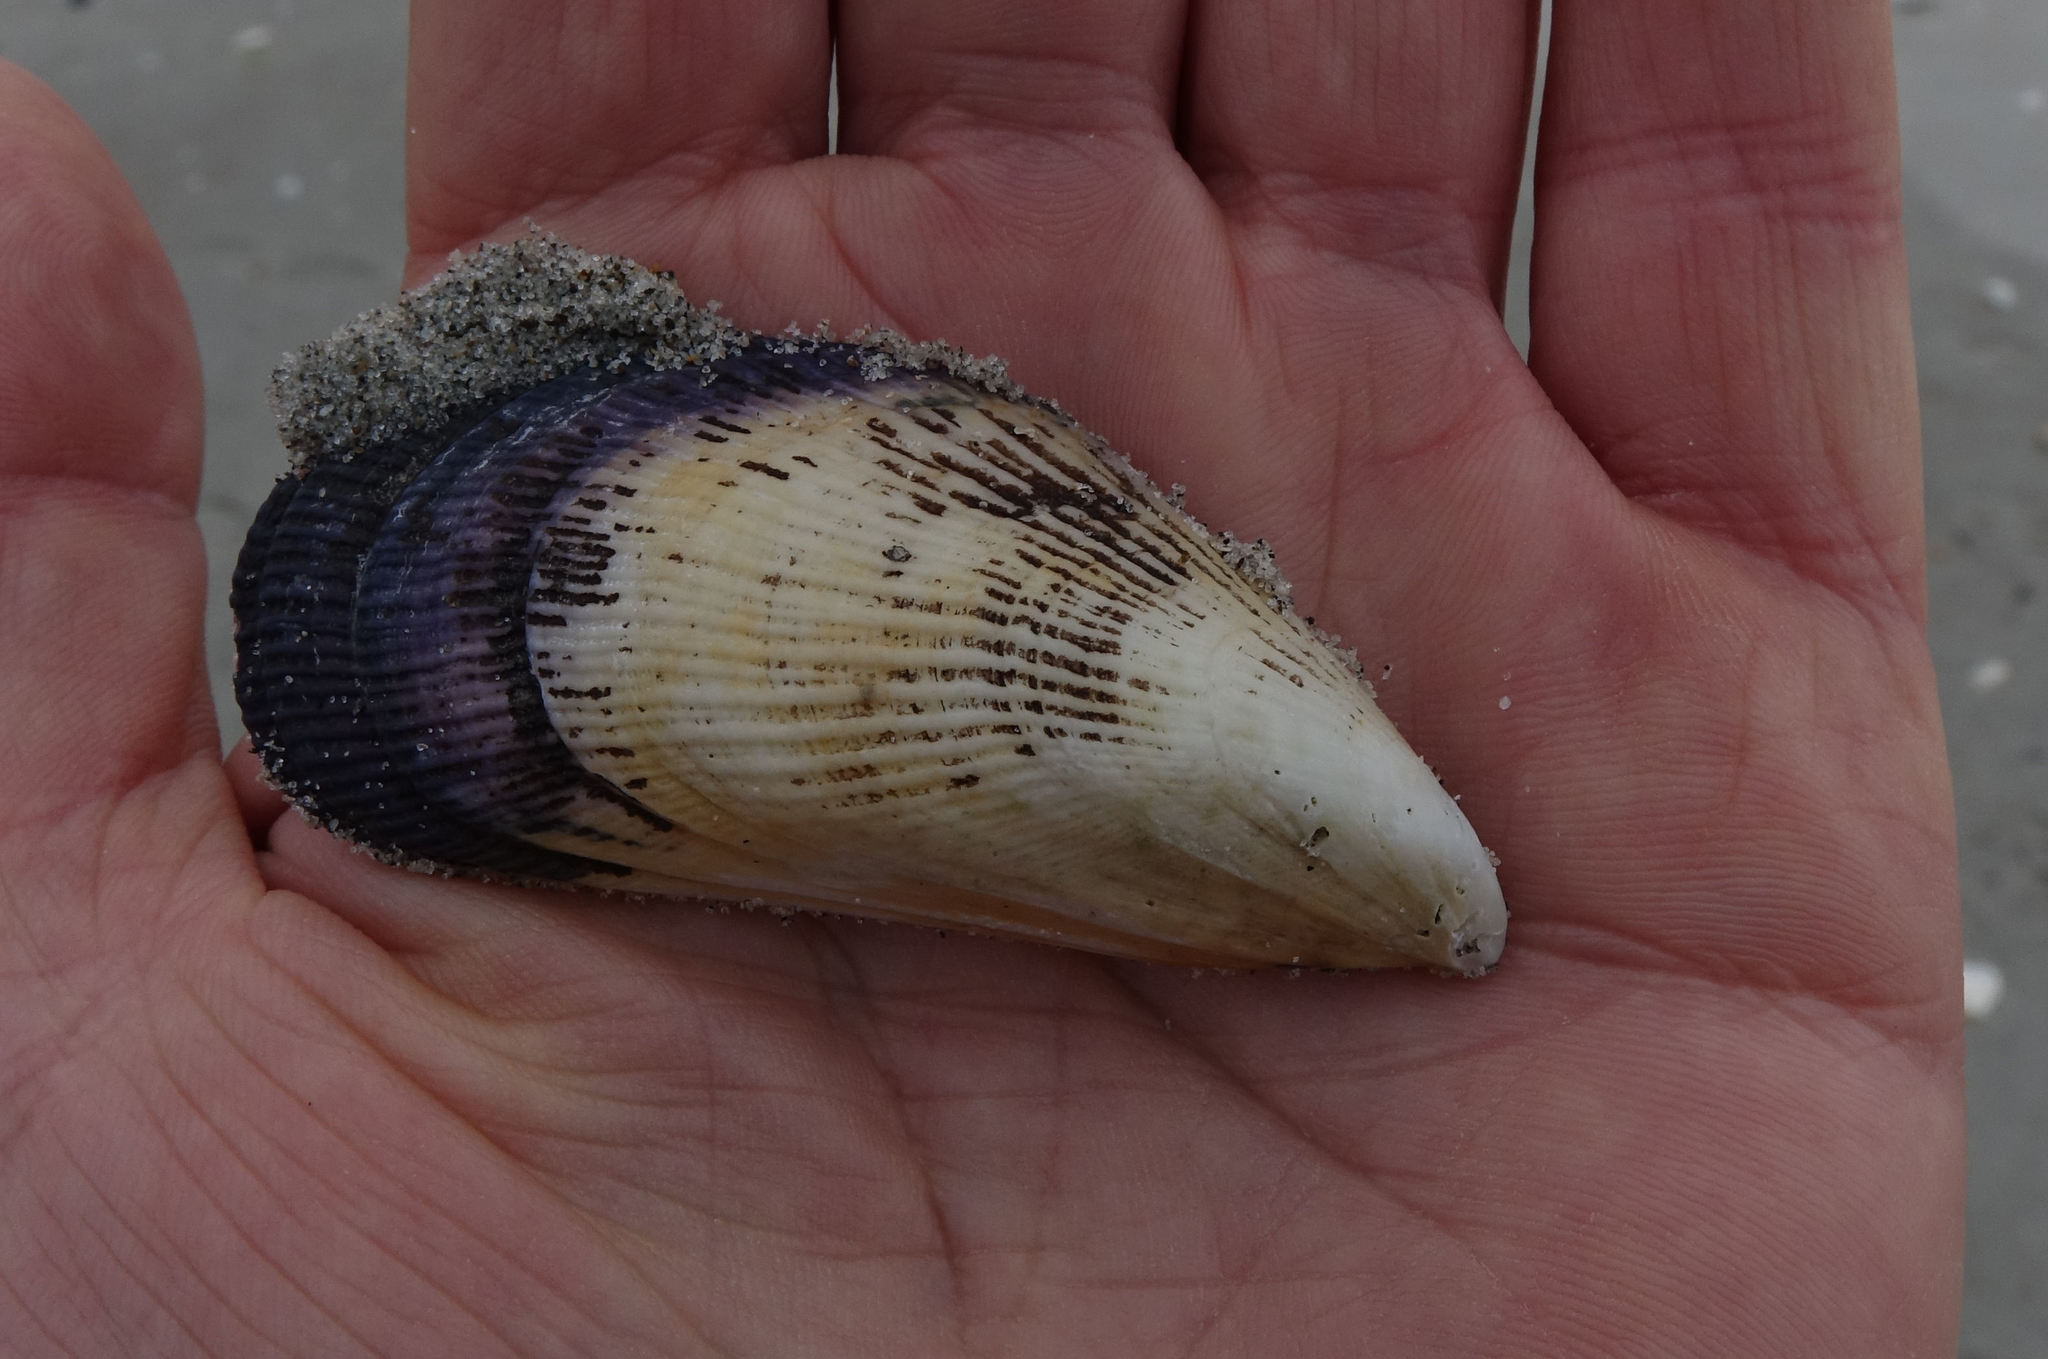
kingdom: Animalia
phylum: Mollusca
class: Bivalvia
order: Mytilida
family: Mytilidae
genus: Aulacomya
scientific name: Aulacomya maoriana
